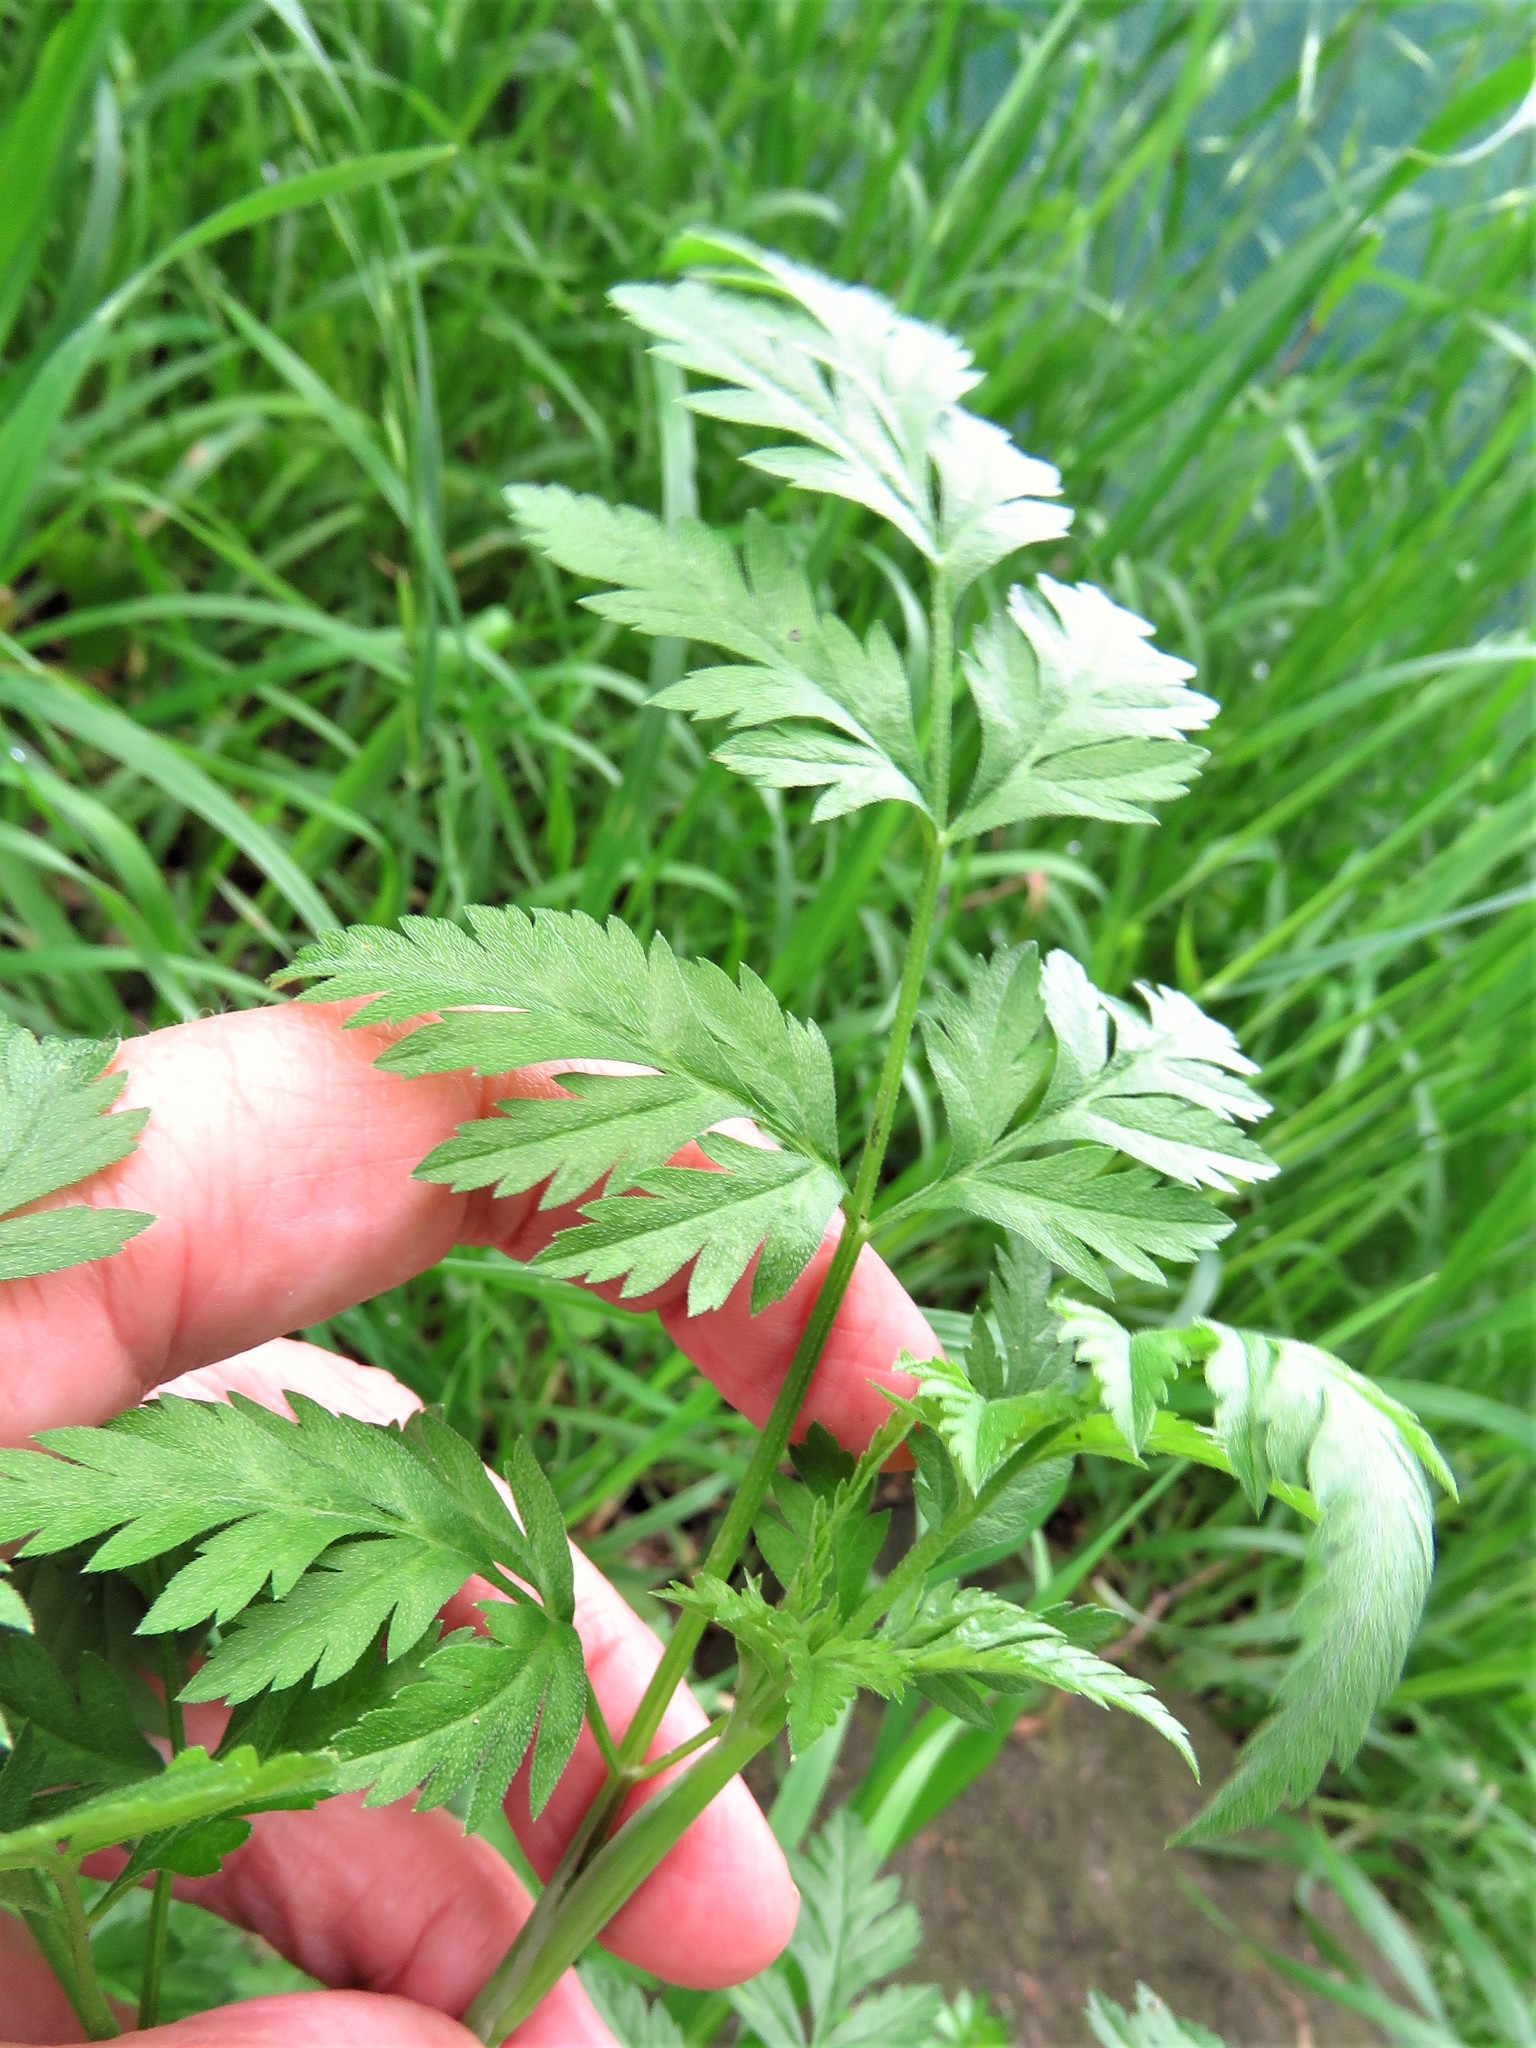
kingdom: Plantae
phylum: Tracheophyta
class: Magnoliopsida
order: Apiales
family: Apiaceae
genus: Torilis
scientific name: Torilis arvensis
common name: Spreading hedge-parsley
